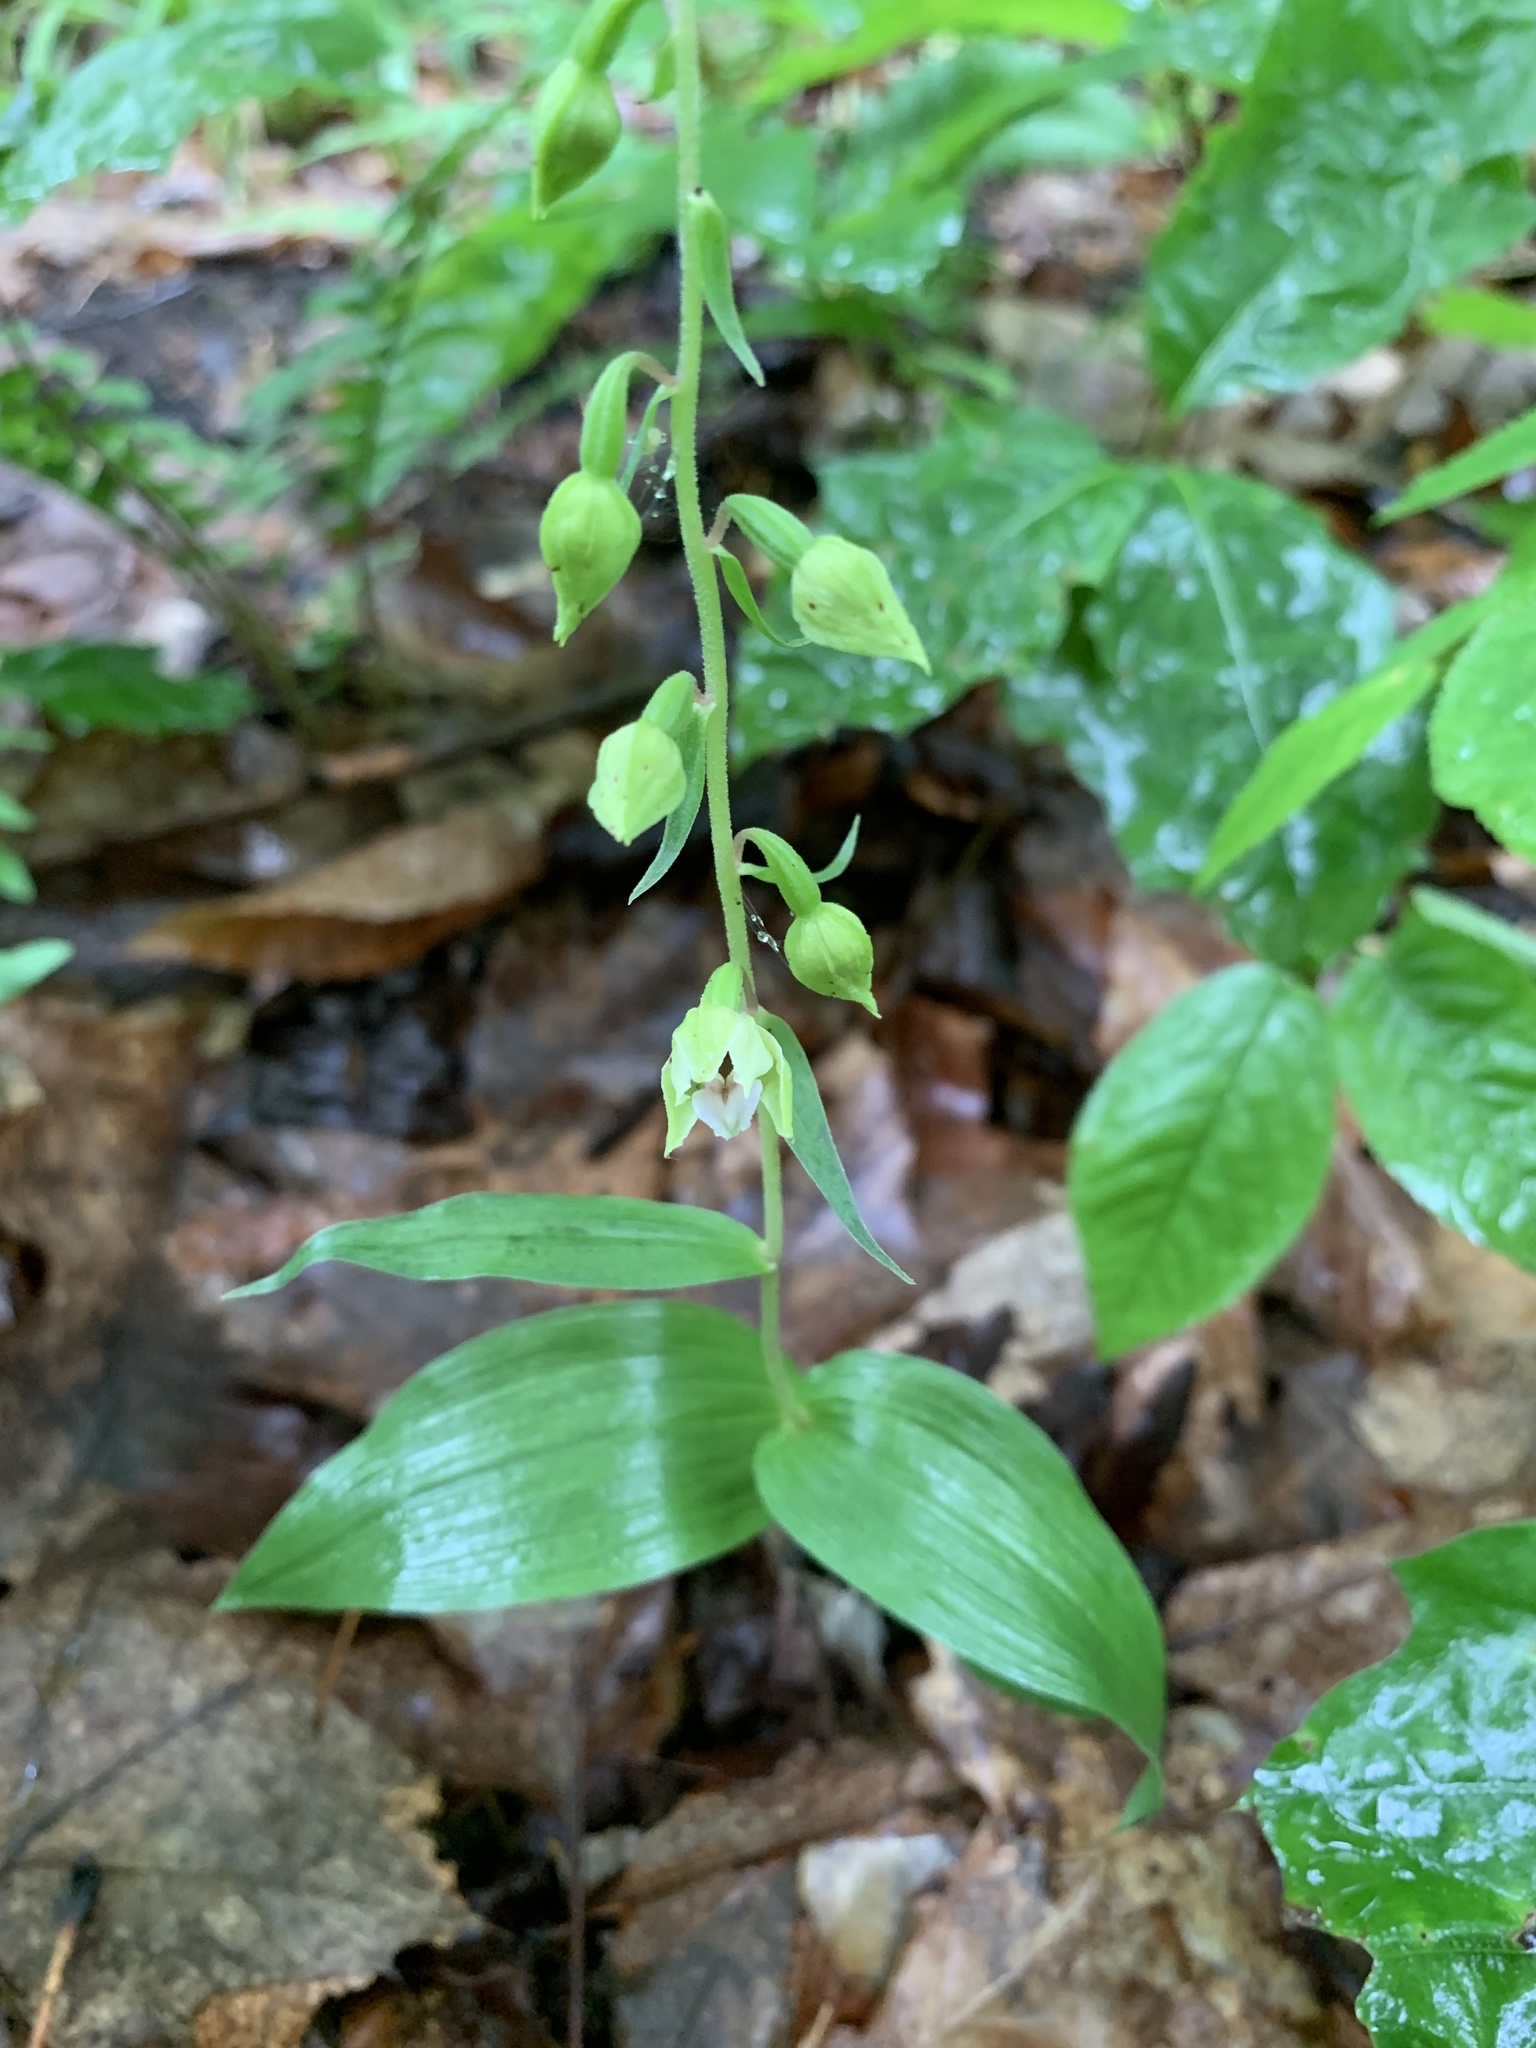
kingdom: Plantae
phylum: Tracheophyta
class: Liliopsida
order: Asparagales
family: Orchidaceae
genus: Epipactis
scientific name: Epipactis helleborine
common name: Broad-leaved helleborine
